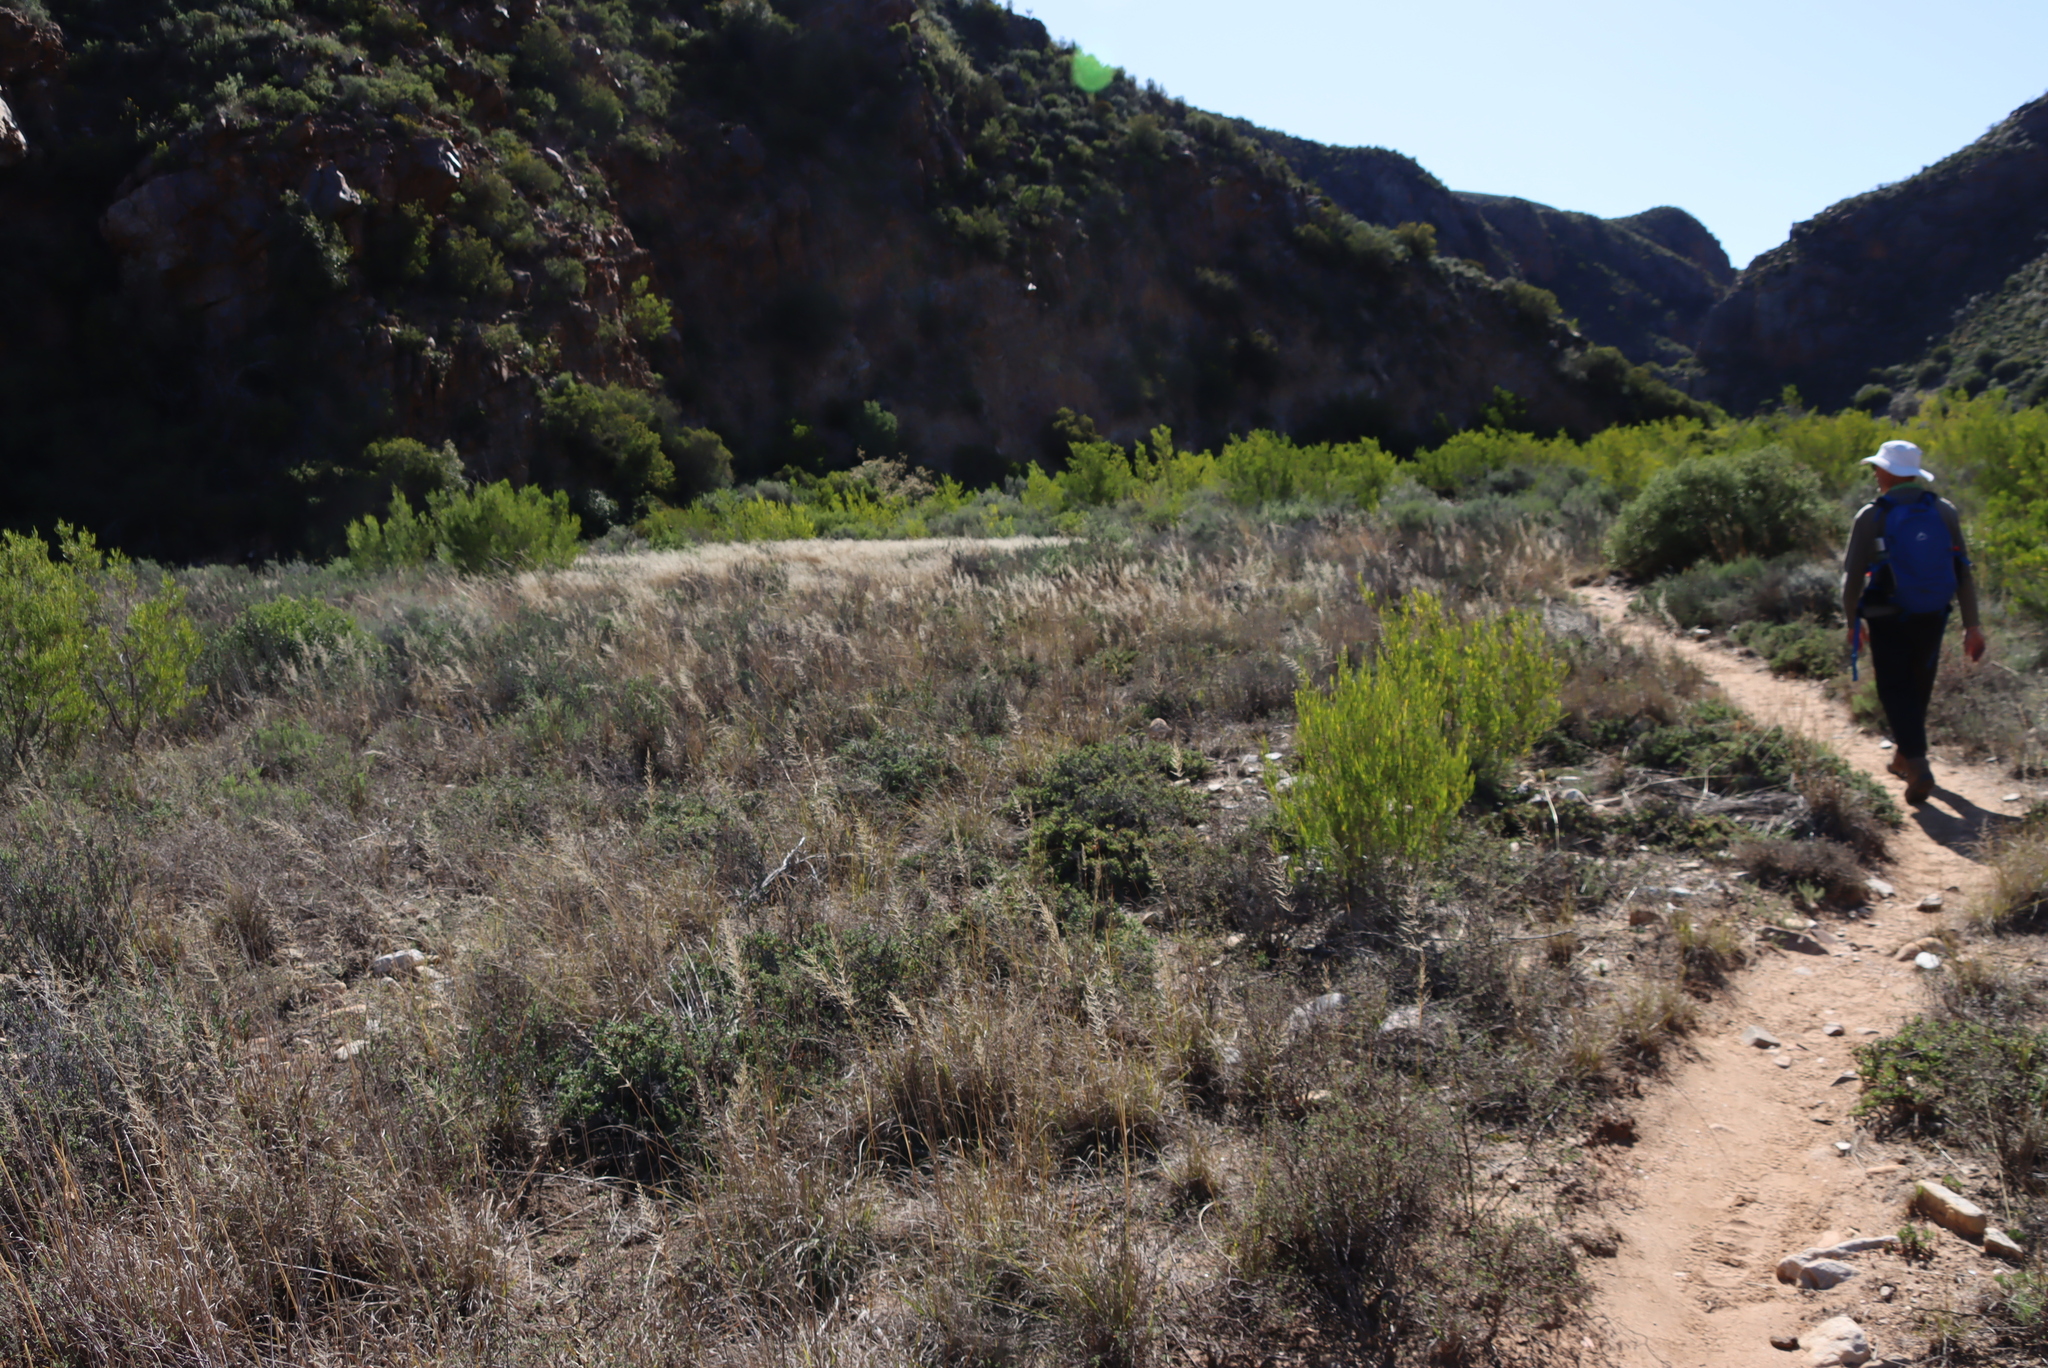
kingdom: Plantae
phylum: Tracheophyta
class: Liliopsida
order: Poales
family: Poaceae
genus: Eragrostis
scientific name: Eragrostis plana
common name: South african lovegrass
